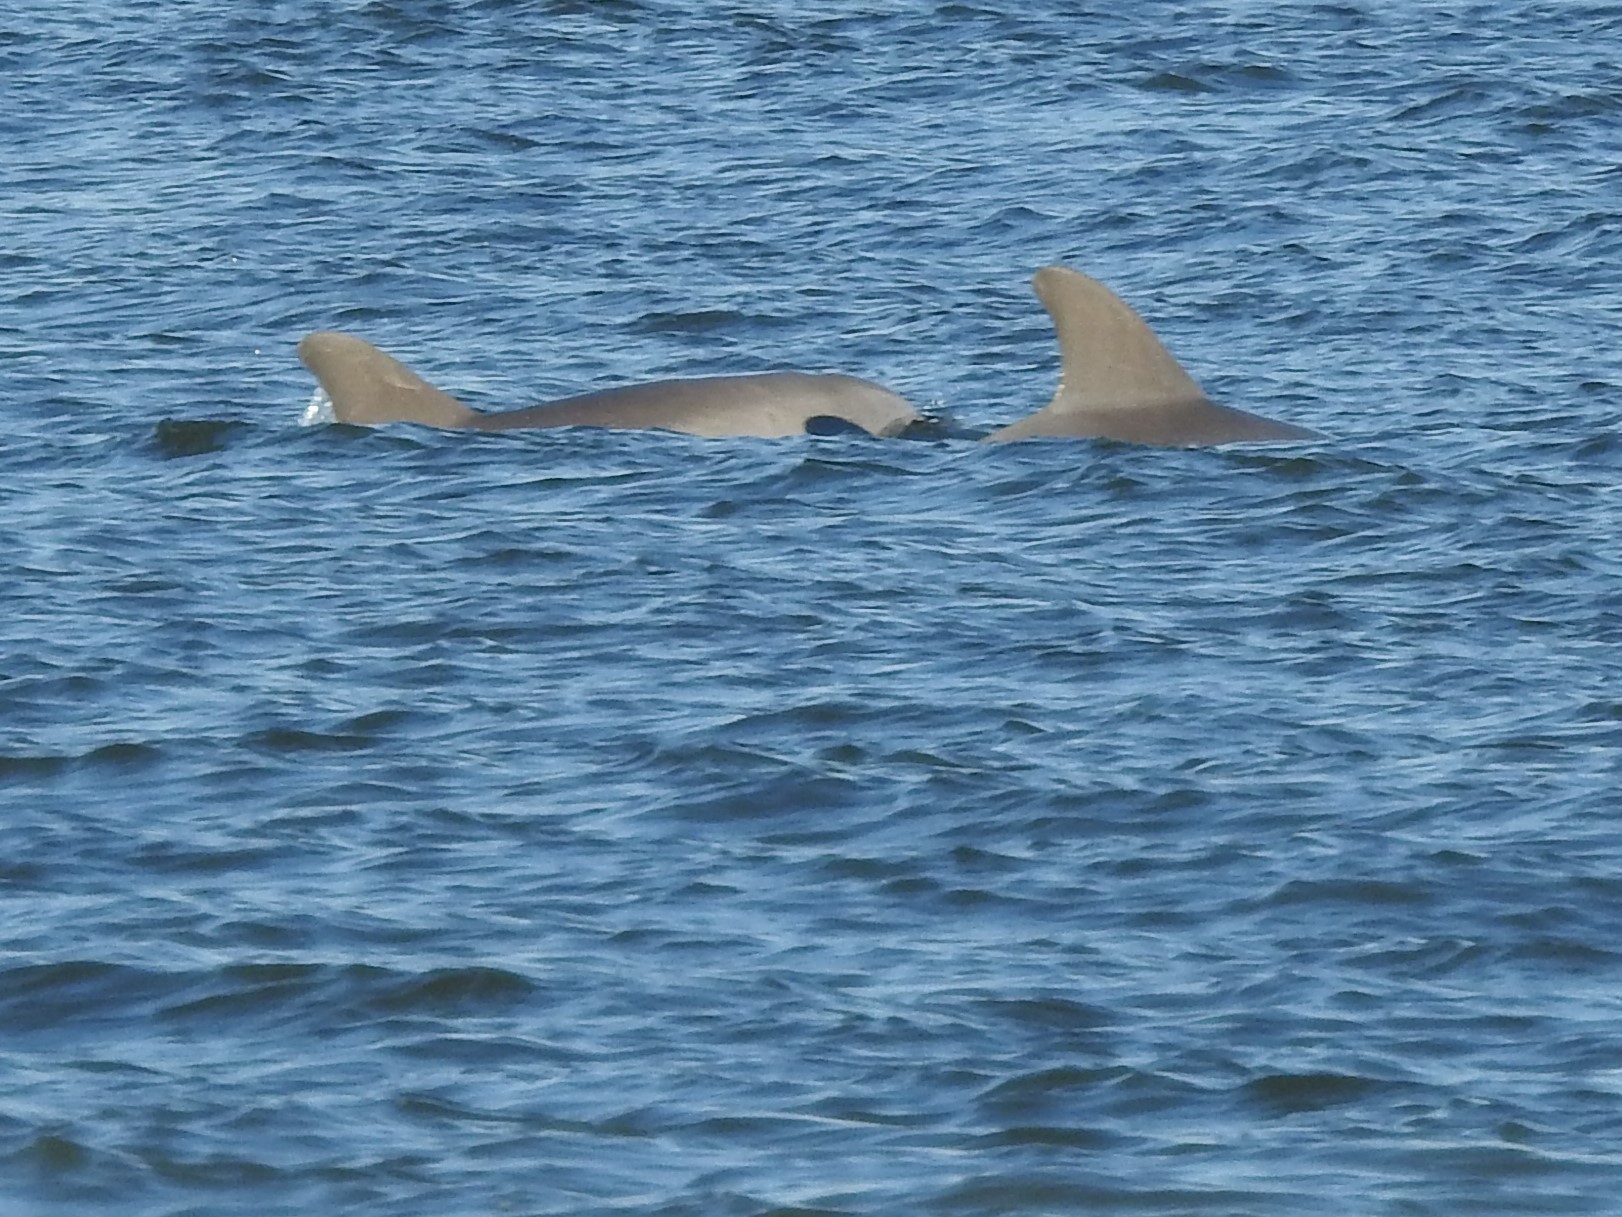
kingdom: Animalia
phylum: Chordata
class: Mammalia
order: Cetacea
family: Delphinidae
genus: Tursiops
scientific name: Tursiops truncatus
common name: Bottlenose dolphin
